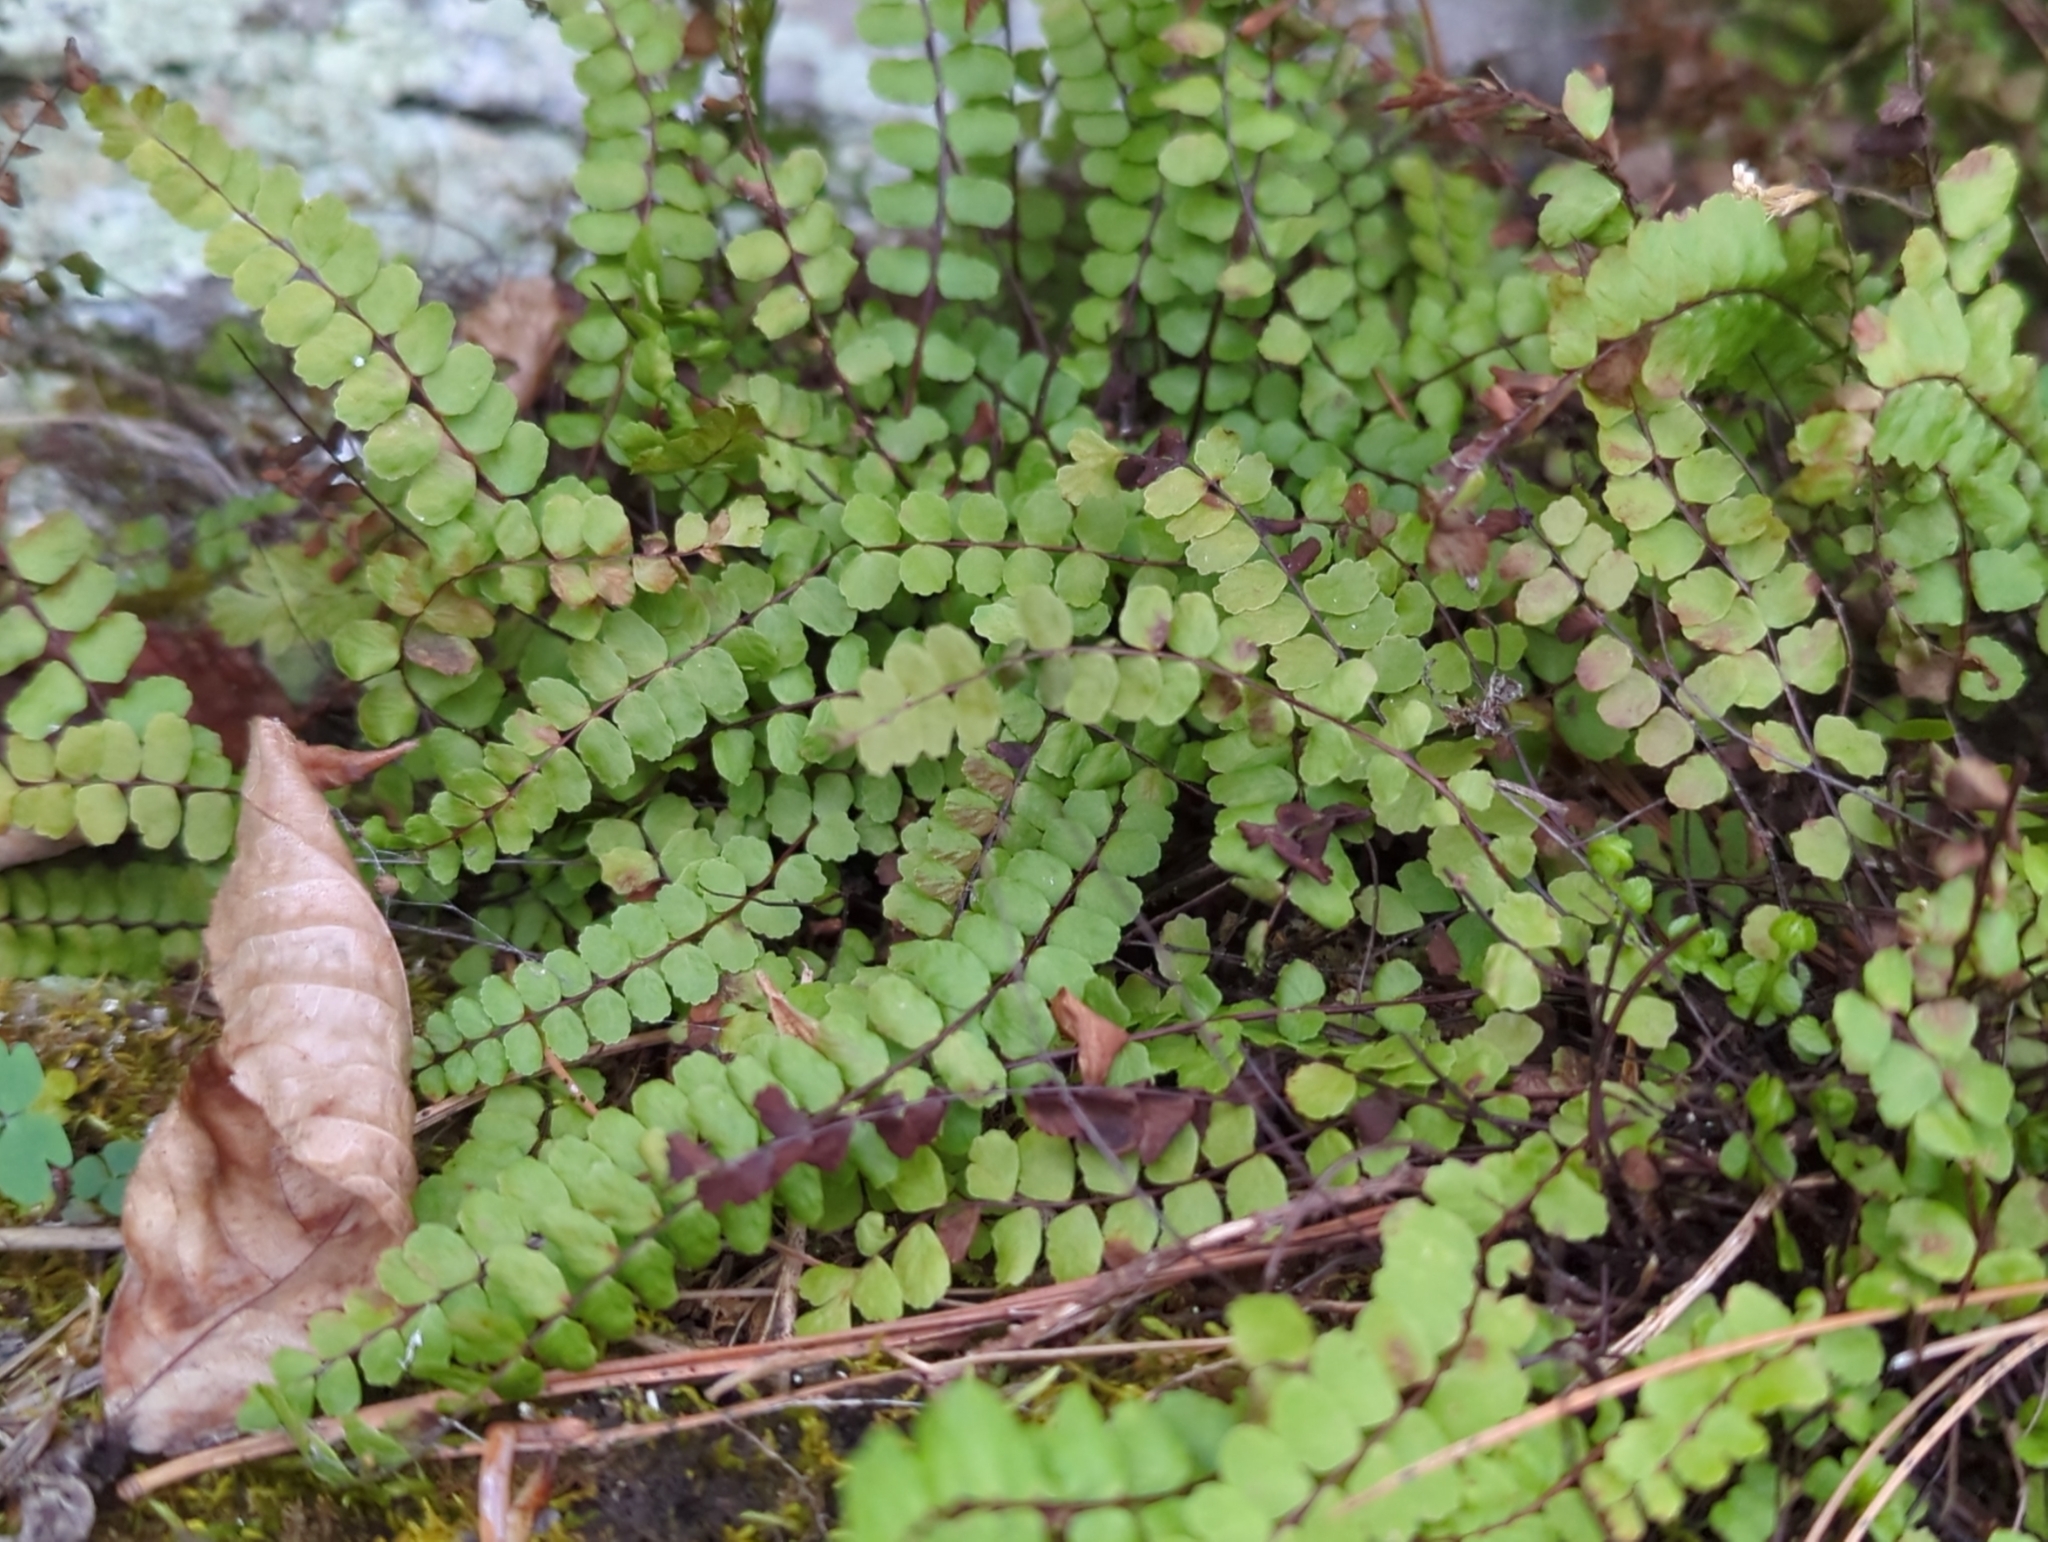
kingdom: Plantae
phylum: Tracheophyta
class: Polypodiopsida
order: Polypodiales
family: Aspleniaceae
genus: Asplenium
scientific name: Asplenium trichomanes
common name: Maidenhair spleenwort
